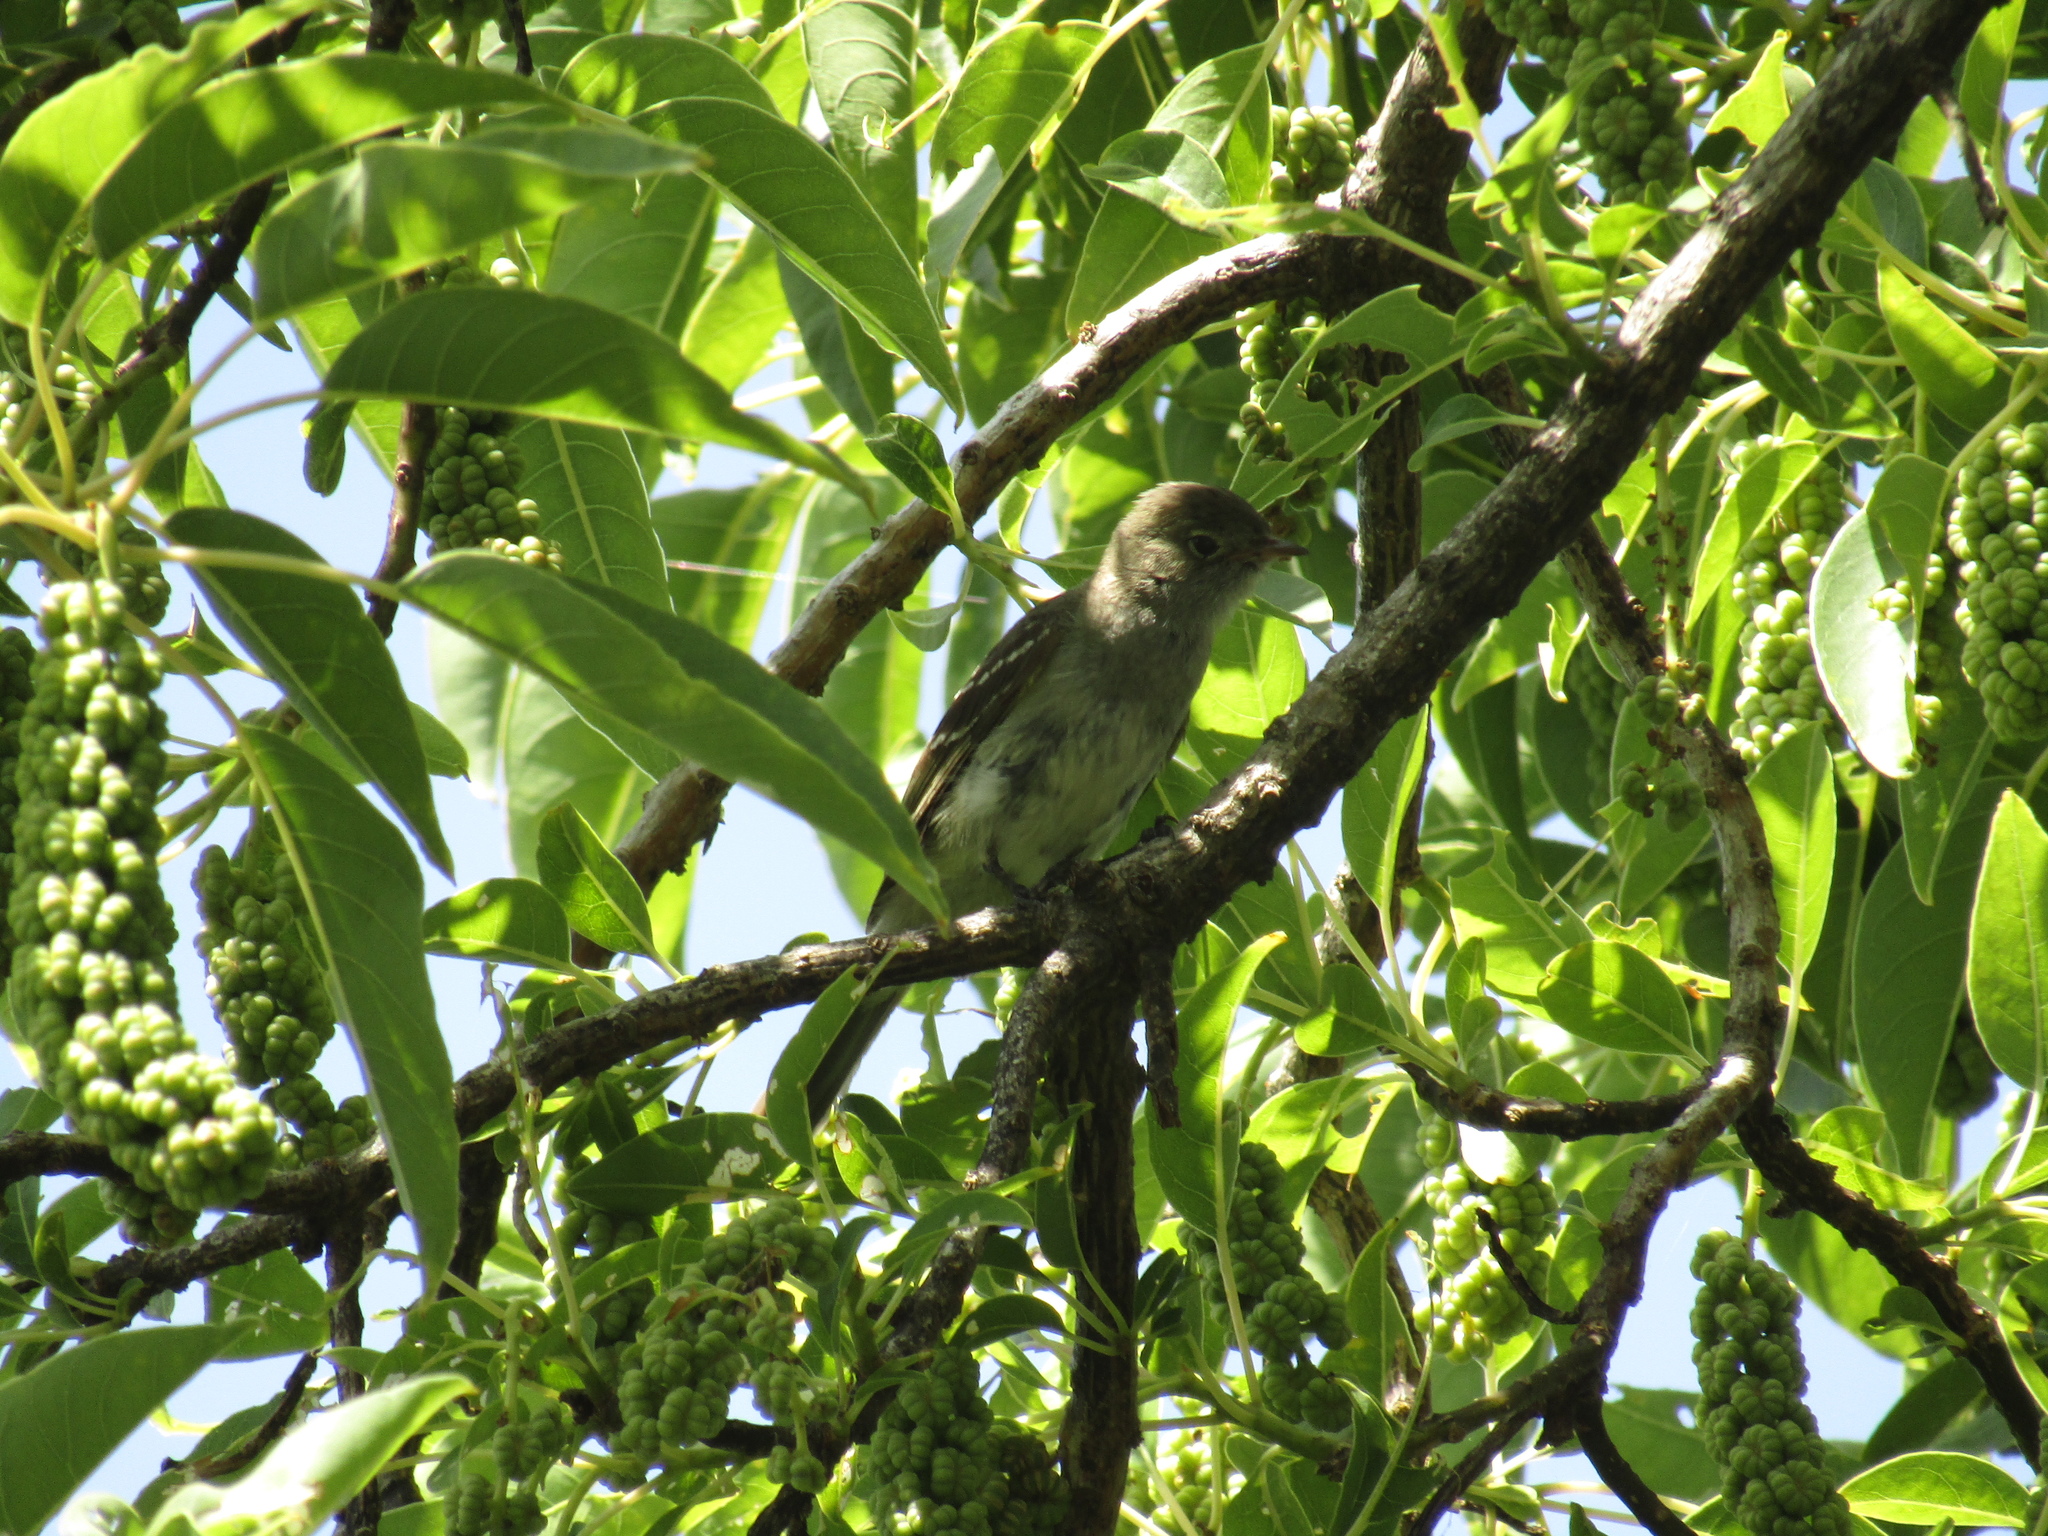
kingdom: Animalia
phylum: Chordata
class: Aves
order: Passeriformes
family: Tyrannidae
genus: Elaenia
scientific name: Elaenia parvirostris
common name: Small-billed elaenia
